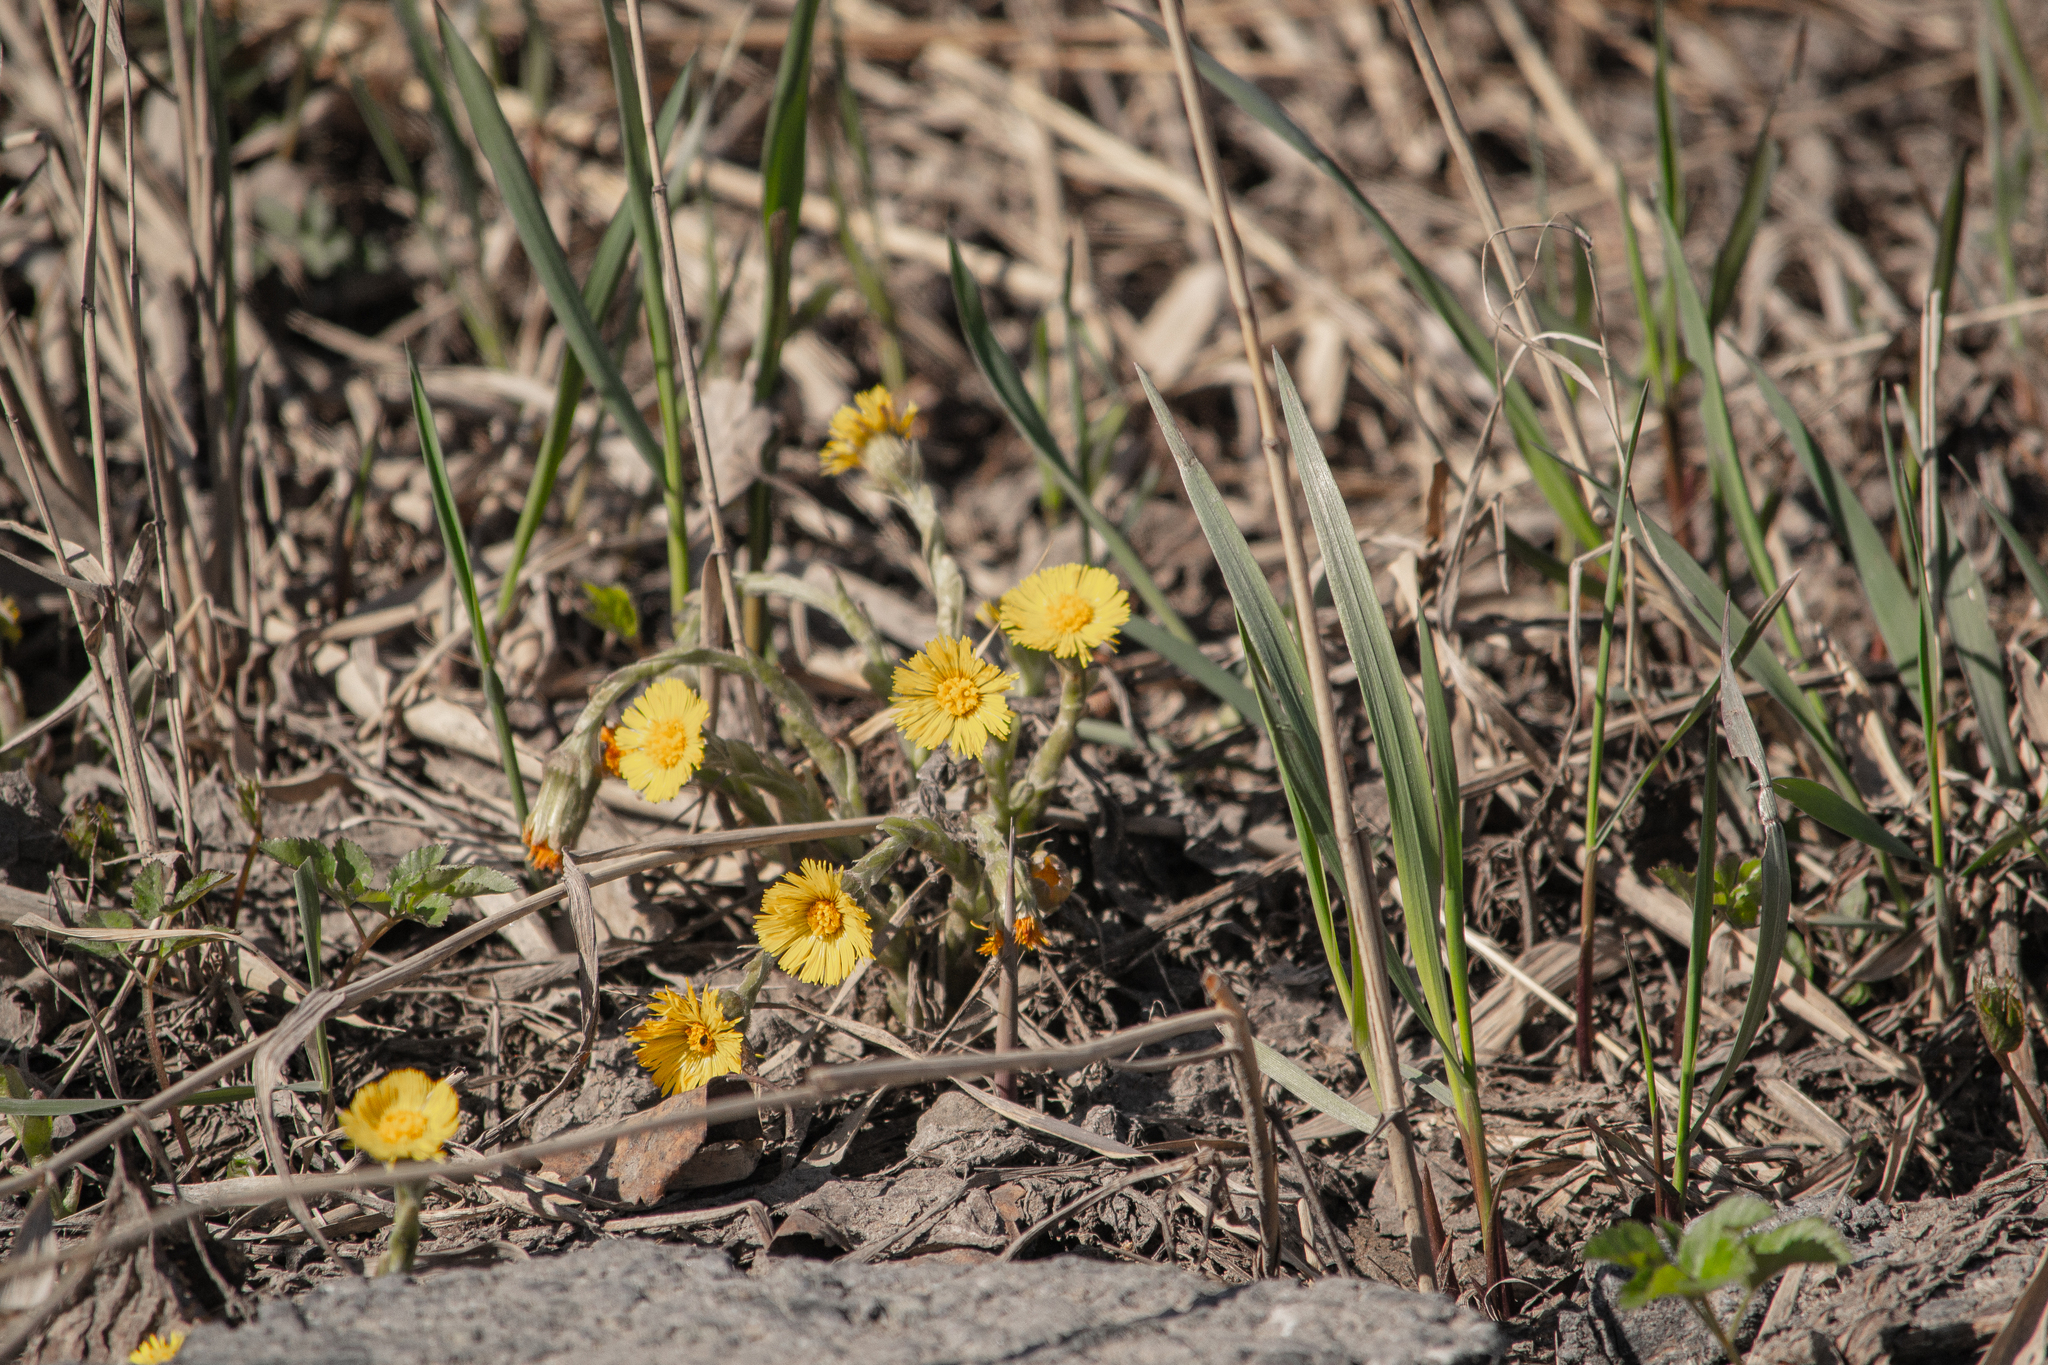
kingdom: Plantae
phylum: Tracheophyta
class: Magnoliopsida
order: Asterales
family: Asteraceae
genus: Tussilago
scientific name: Tussilago farfara
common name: Coltsfoot
